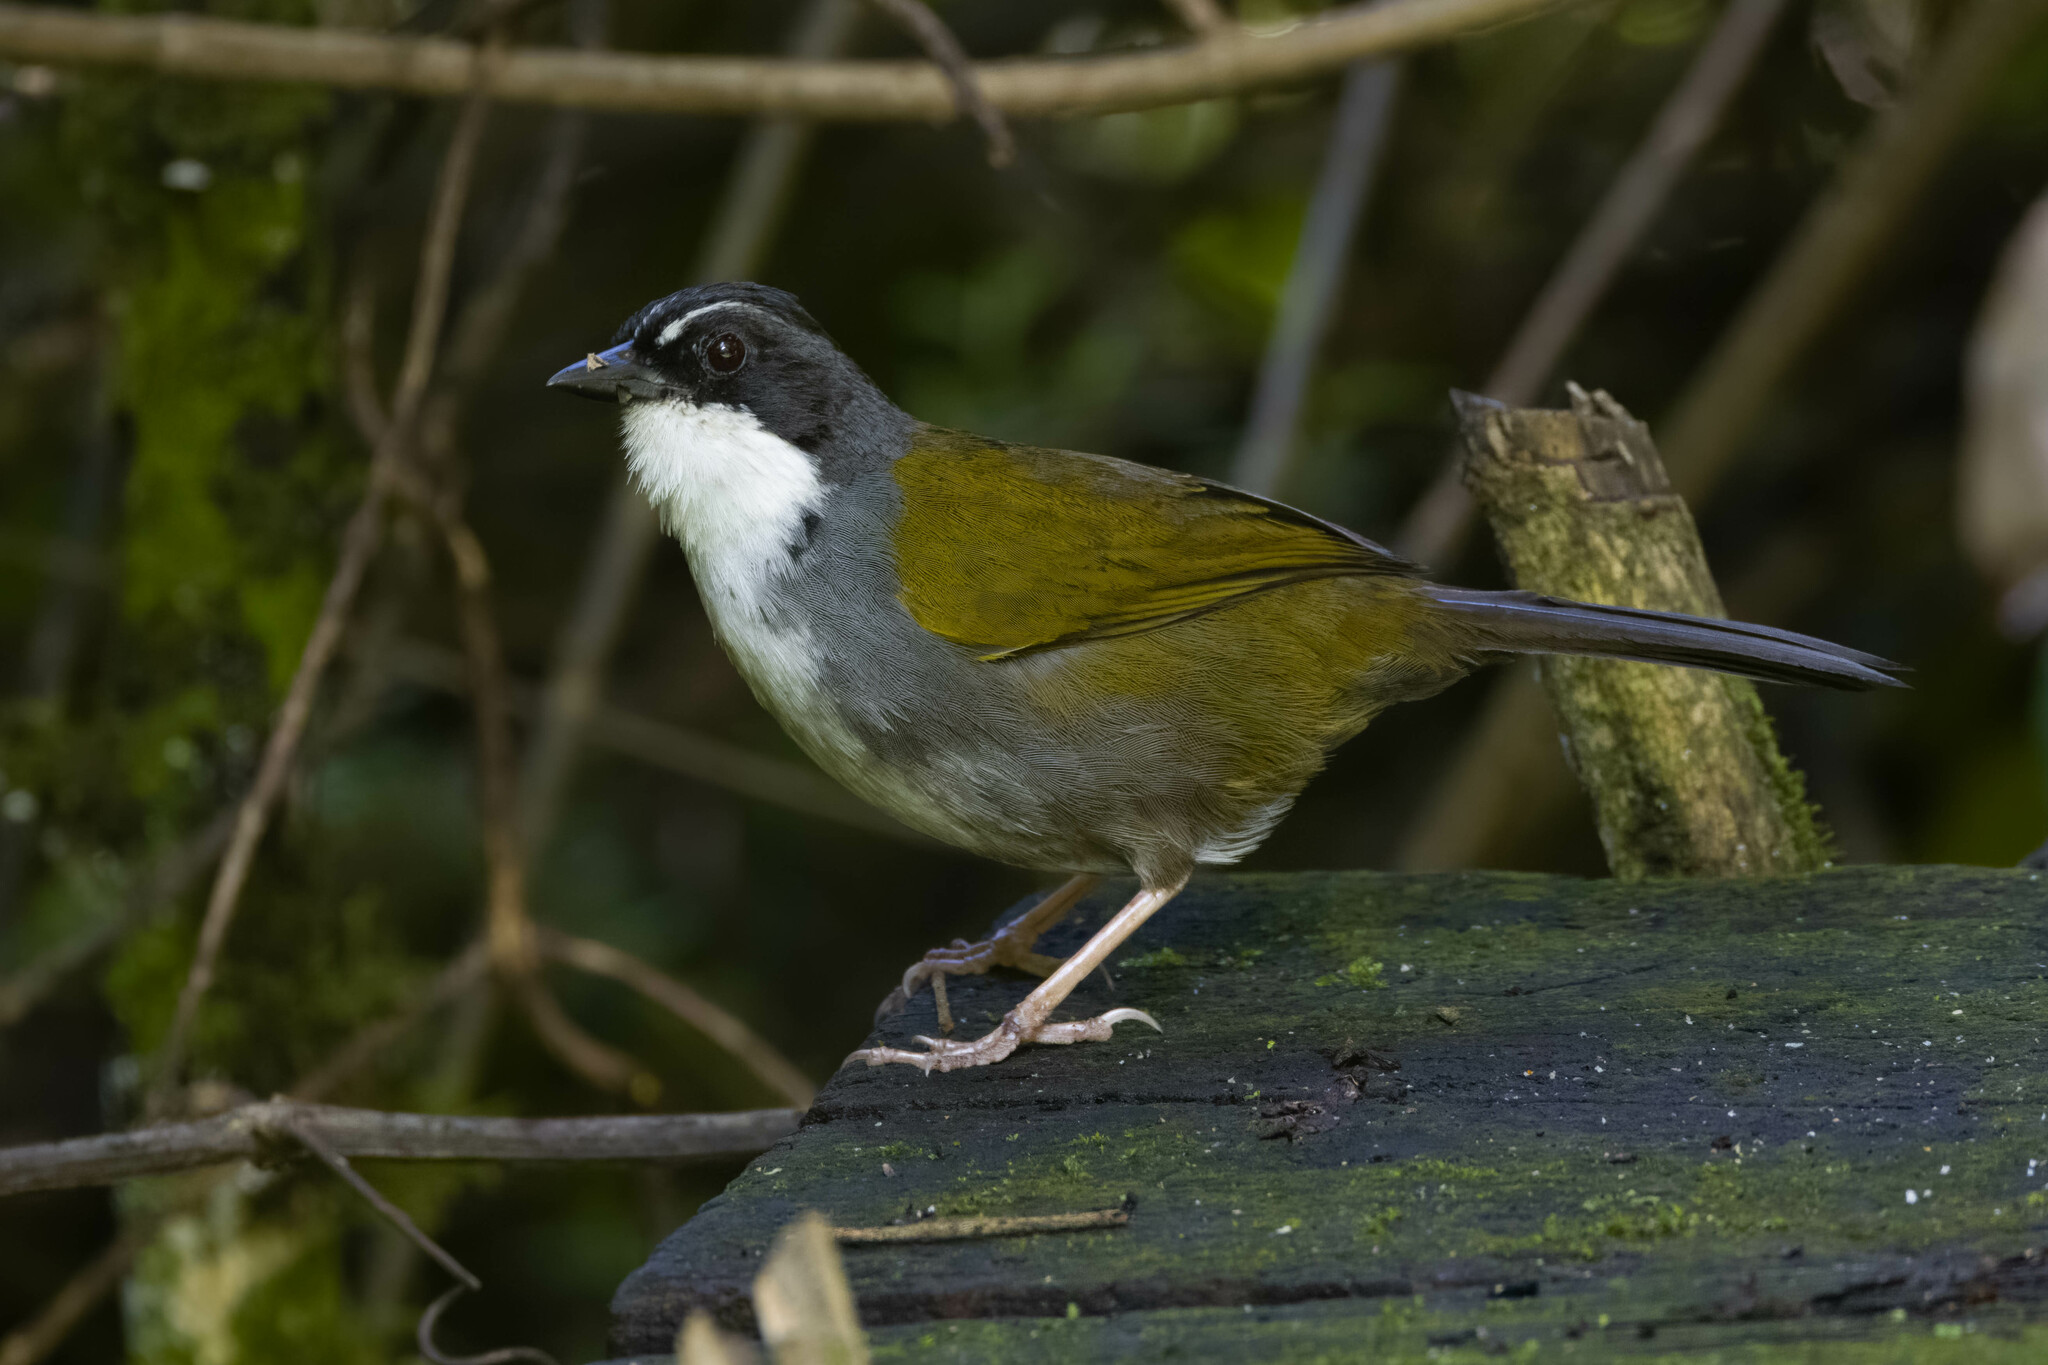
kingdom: Animalia
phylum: Chordata
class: Aves
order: Passeriformes
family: Passerellidae
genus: Arremon
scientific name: Arremon assimilis
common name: Grey-browed brushfinch
